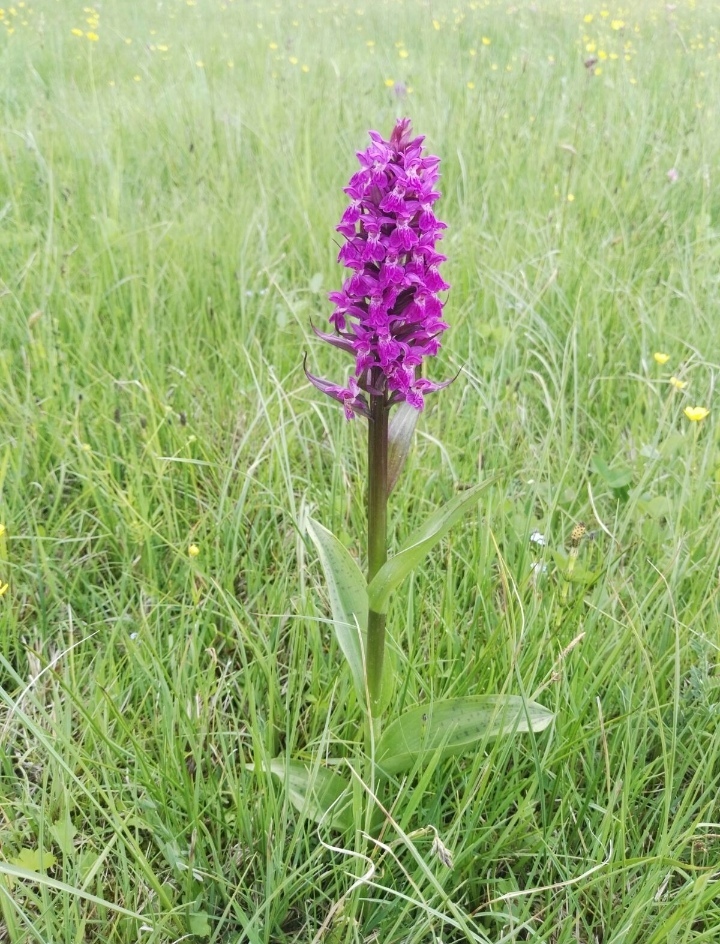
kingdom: Plantae
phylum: Tracheophyta
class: Liliopsida
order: Asparagales
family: Orchidaceae
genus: Dactylorhiza
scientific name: Dactylorhiza majalis
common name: Marsh orchid
